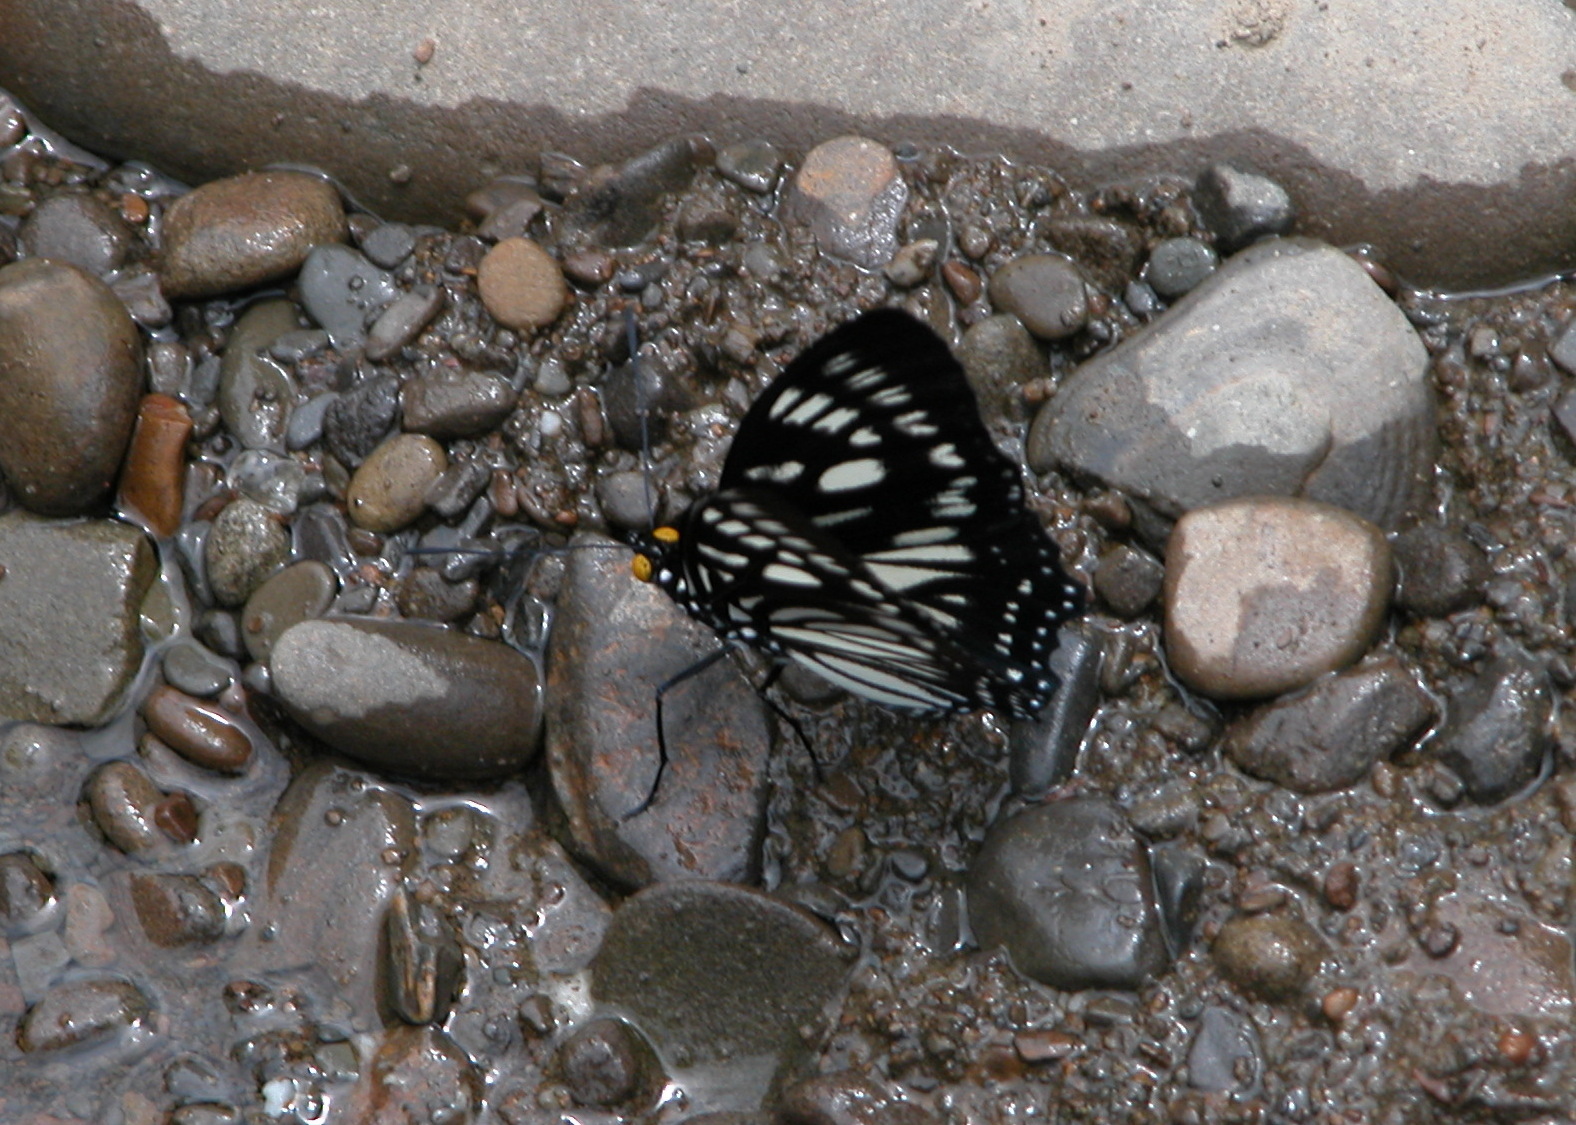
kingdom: Animalia
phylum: Arthropoda
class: Insecta
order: Lepidoptera
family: Nymphalidae
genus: Euripus
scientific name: Euripus nyctelius
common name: Courtesan
